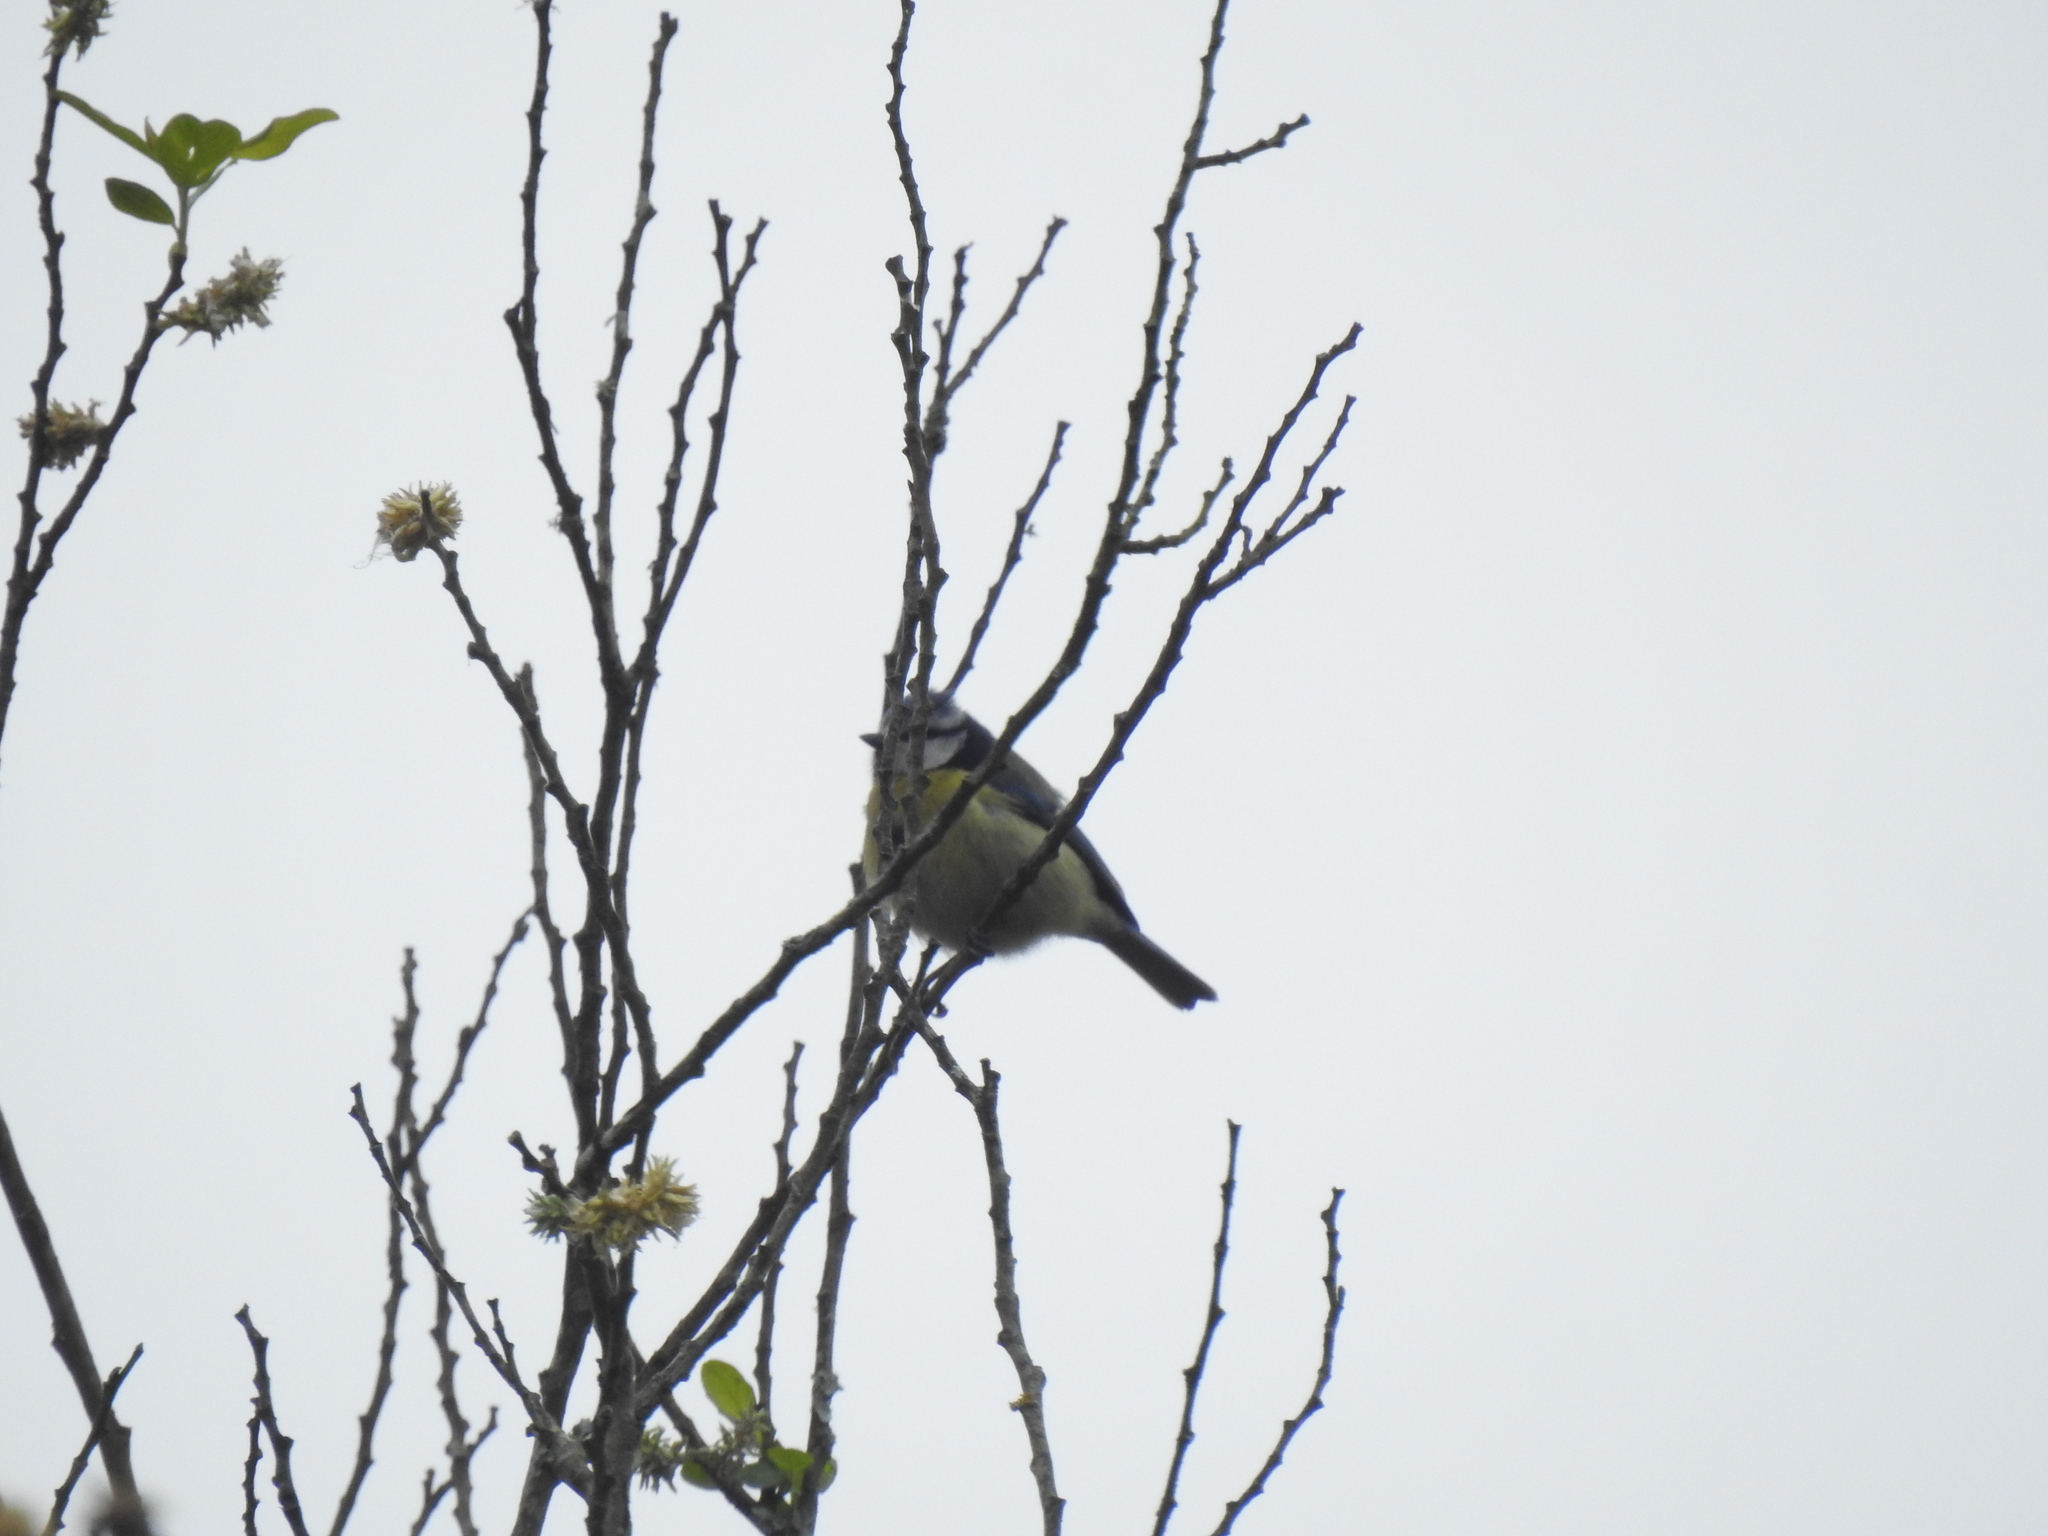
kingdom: Animalia
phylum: Chordata
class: Aves
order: Passeriformes
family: Paridae
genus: Cyanistes
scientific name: Cyanistes caeruleus
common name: Eurasian blue tit
